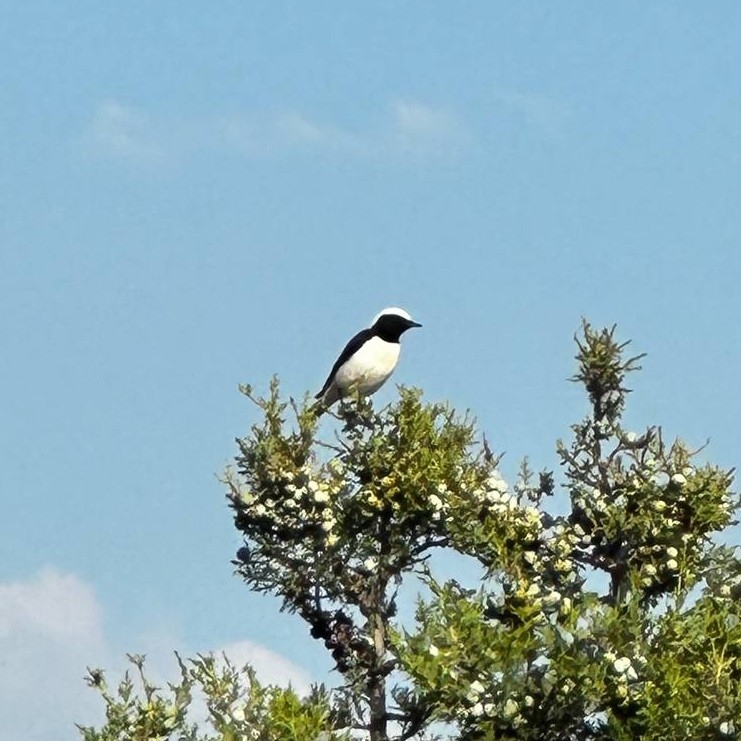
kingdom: Animalia
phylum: Chordata
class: Aves
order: Passeriformes
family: Muscicapidae
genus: Oenanthe
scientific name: Oenanthe pleschanka
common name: Pied wheatear
